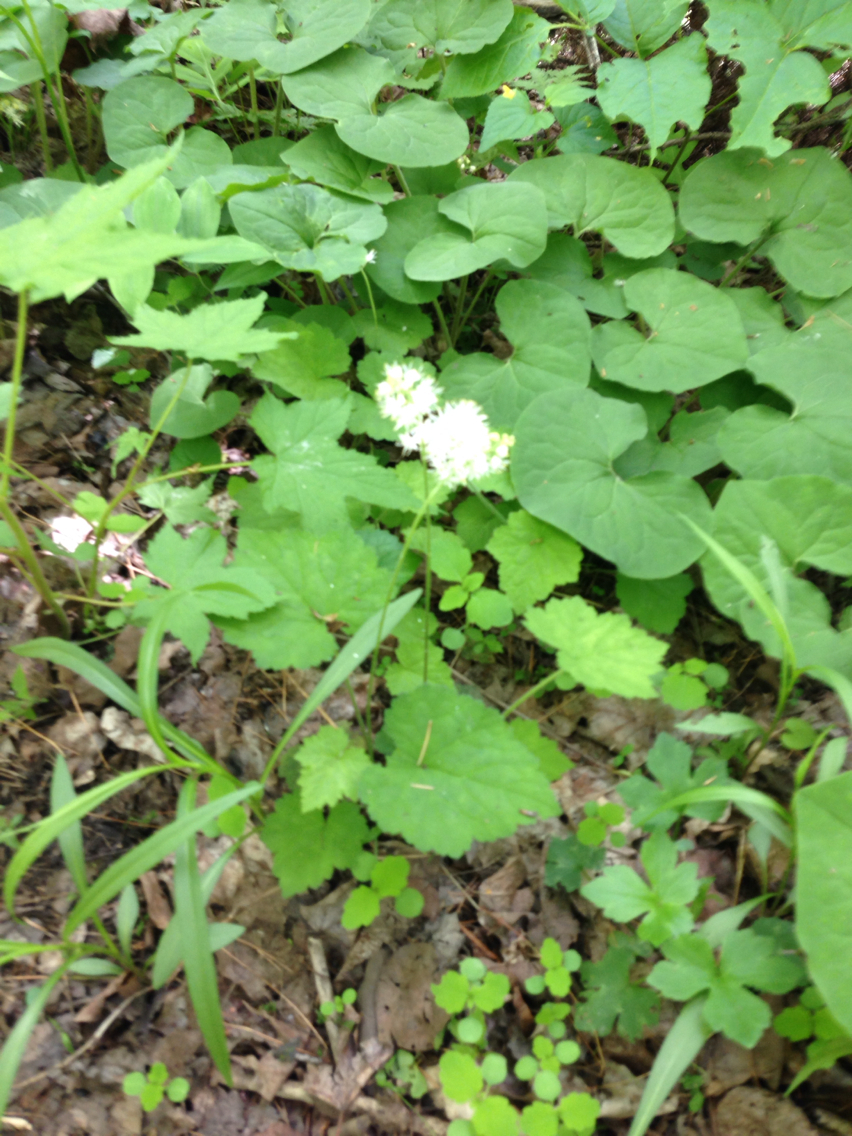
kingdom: Plantae
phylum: Tracheophyta
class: Magnoliopsida
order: Saxifragales
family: Saxifragaceae
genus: Tiarella
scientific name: Tiarella stolonifera
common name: Stoloniferous foamflower
